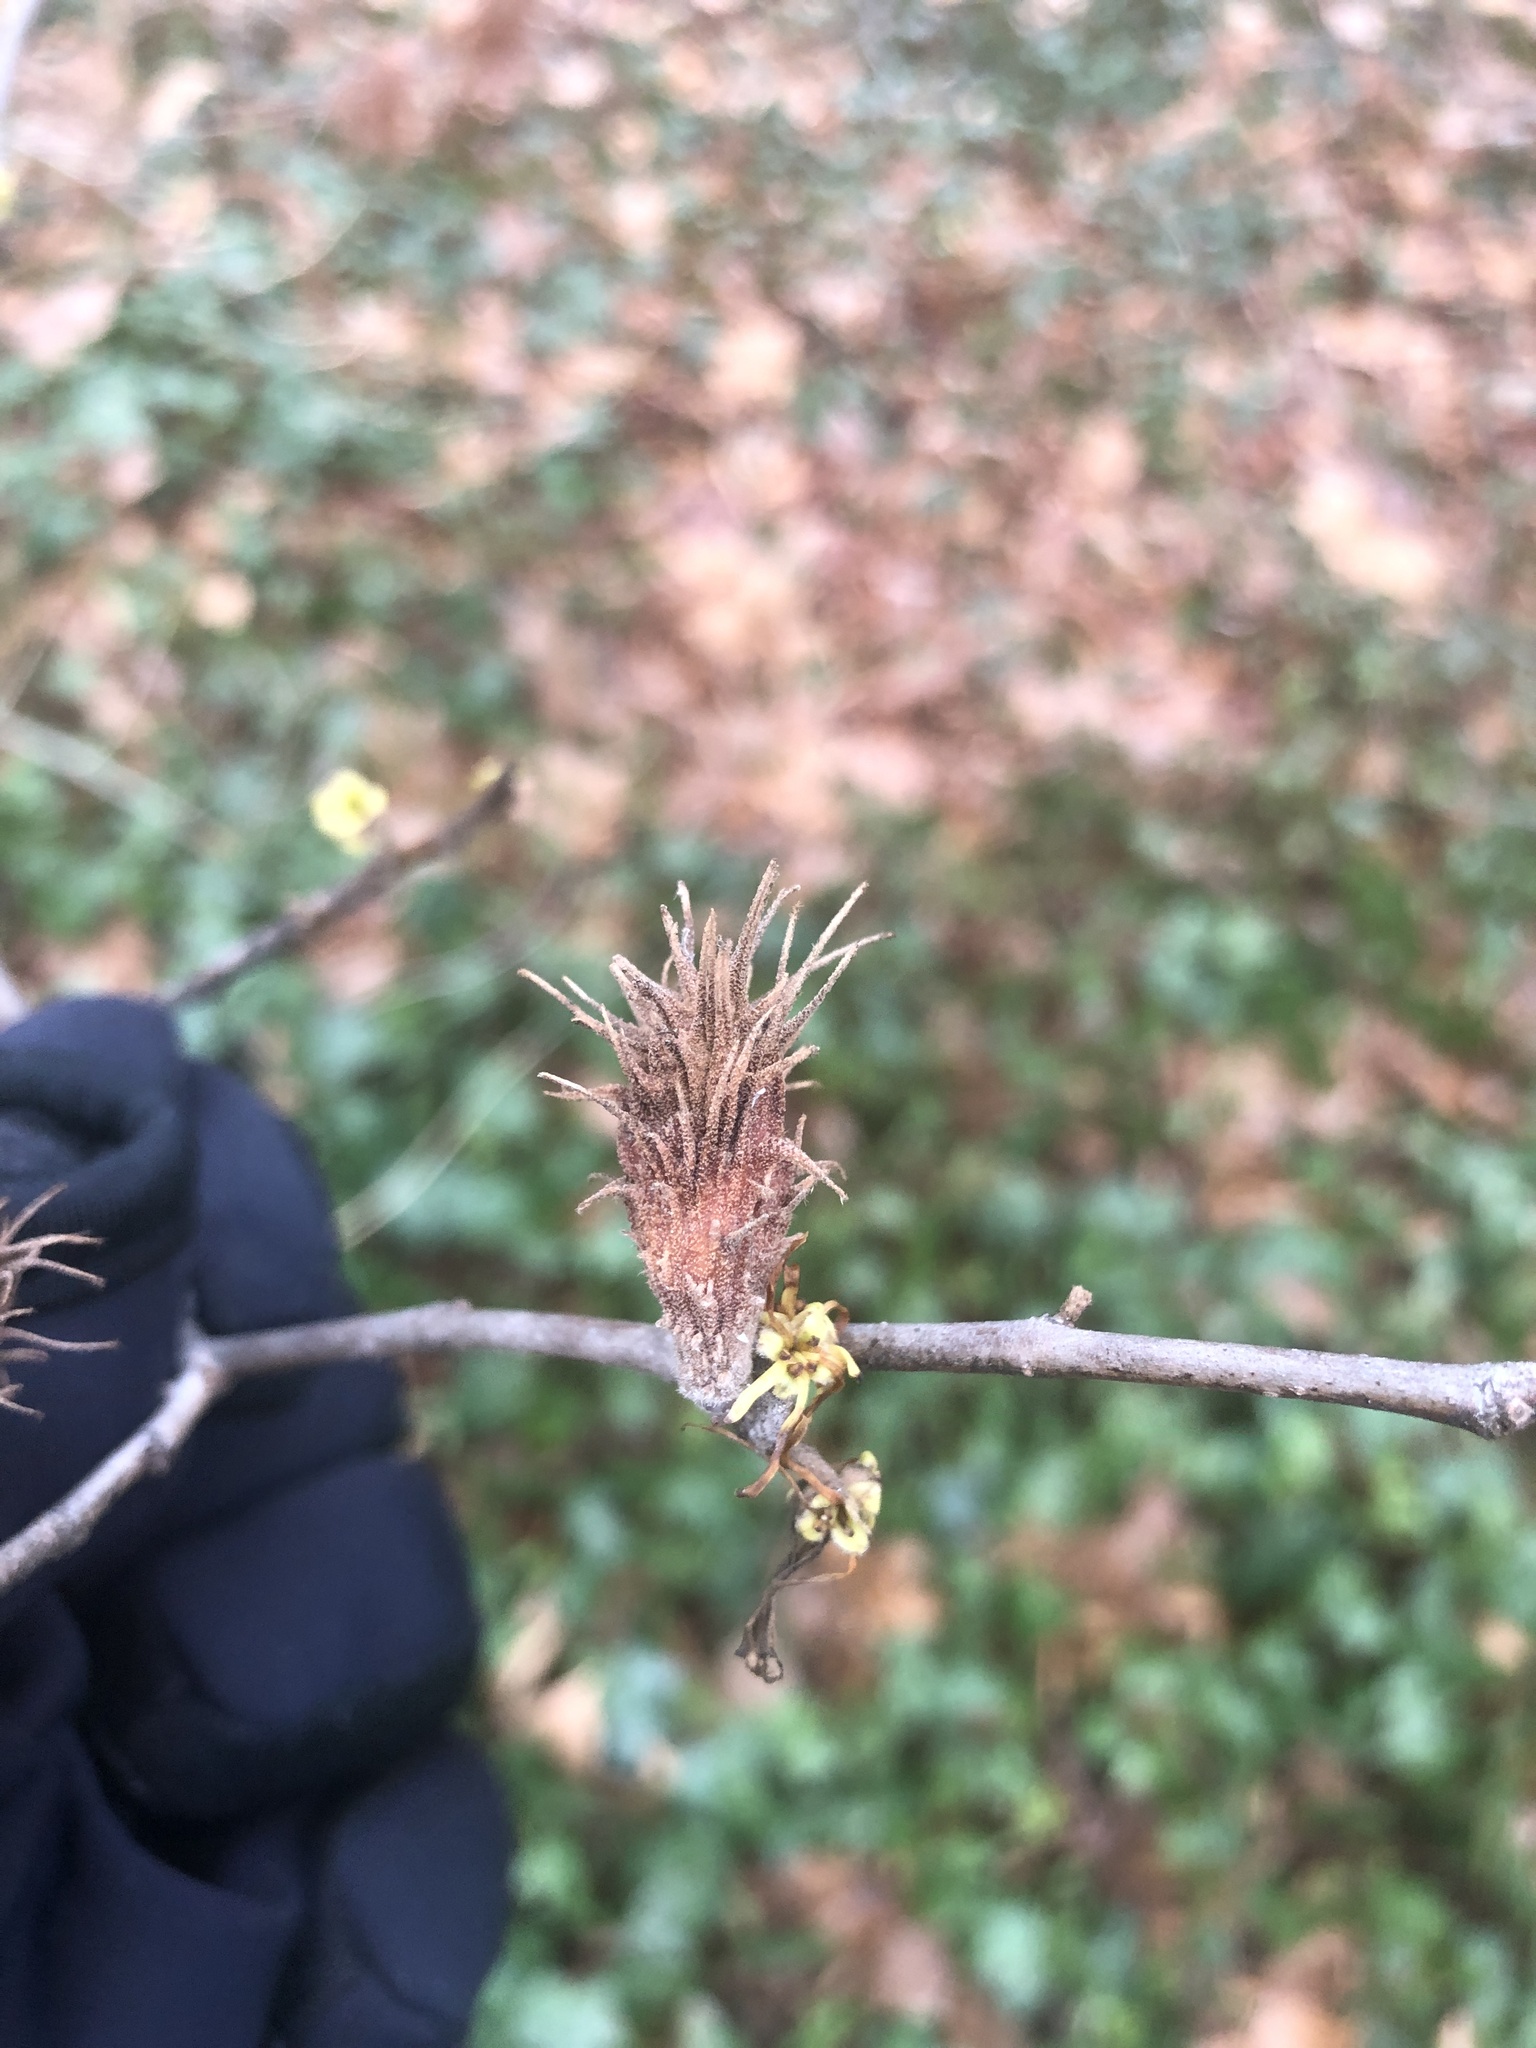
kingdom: Animalia
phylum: Arthropoda
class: Insecta
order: Hemiptera
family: Aphididae
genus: Hamamelistes
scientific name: Hamamelistes spinosus
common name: Witch hazel gall aphid
